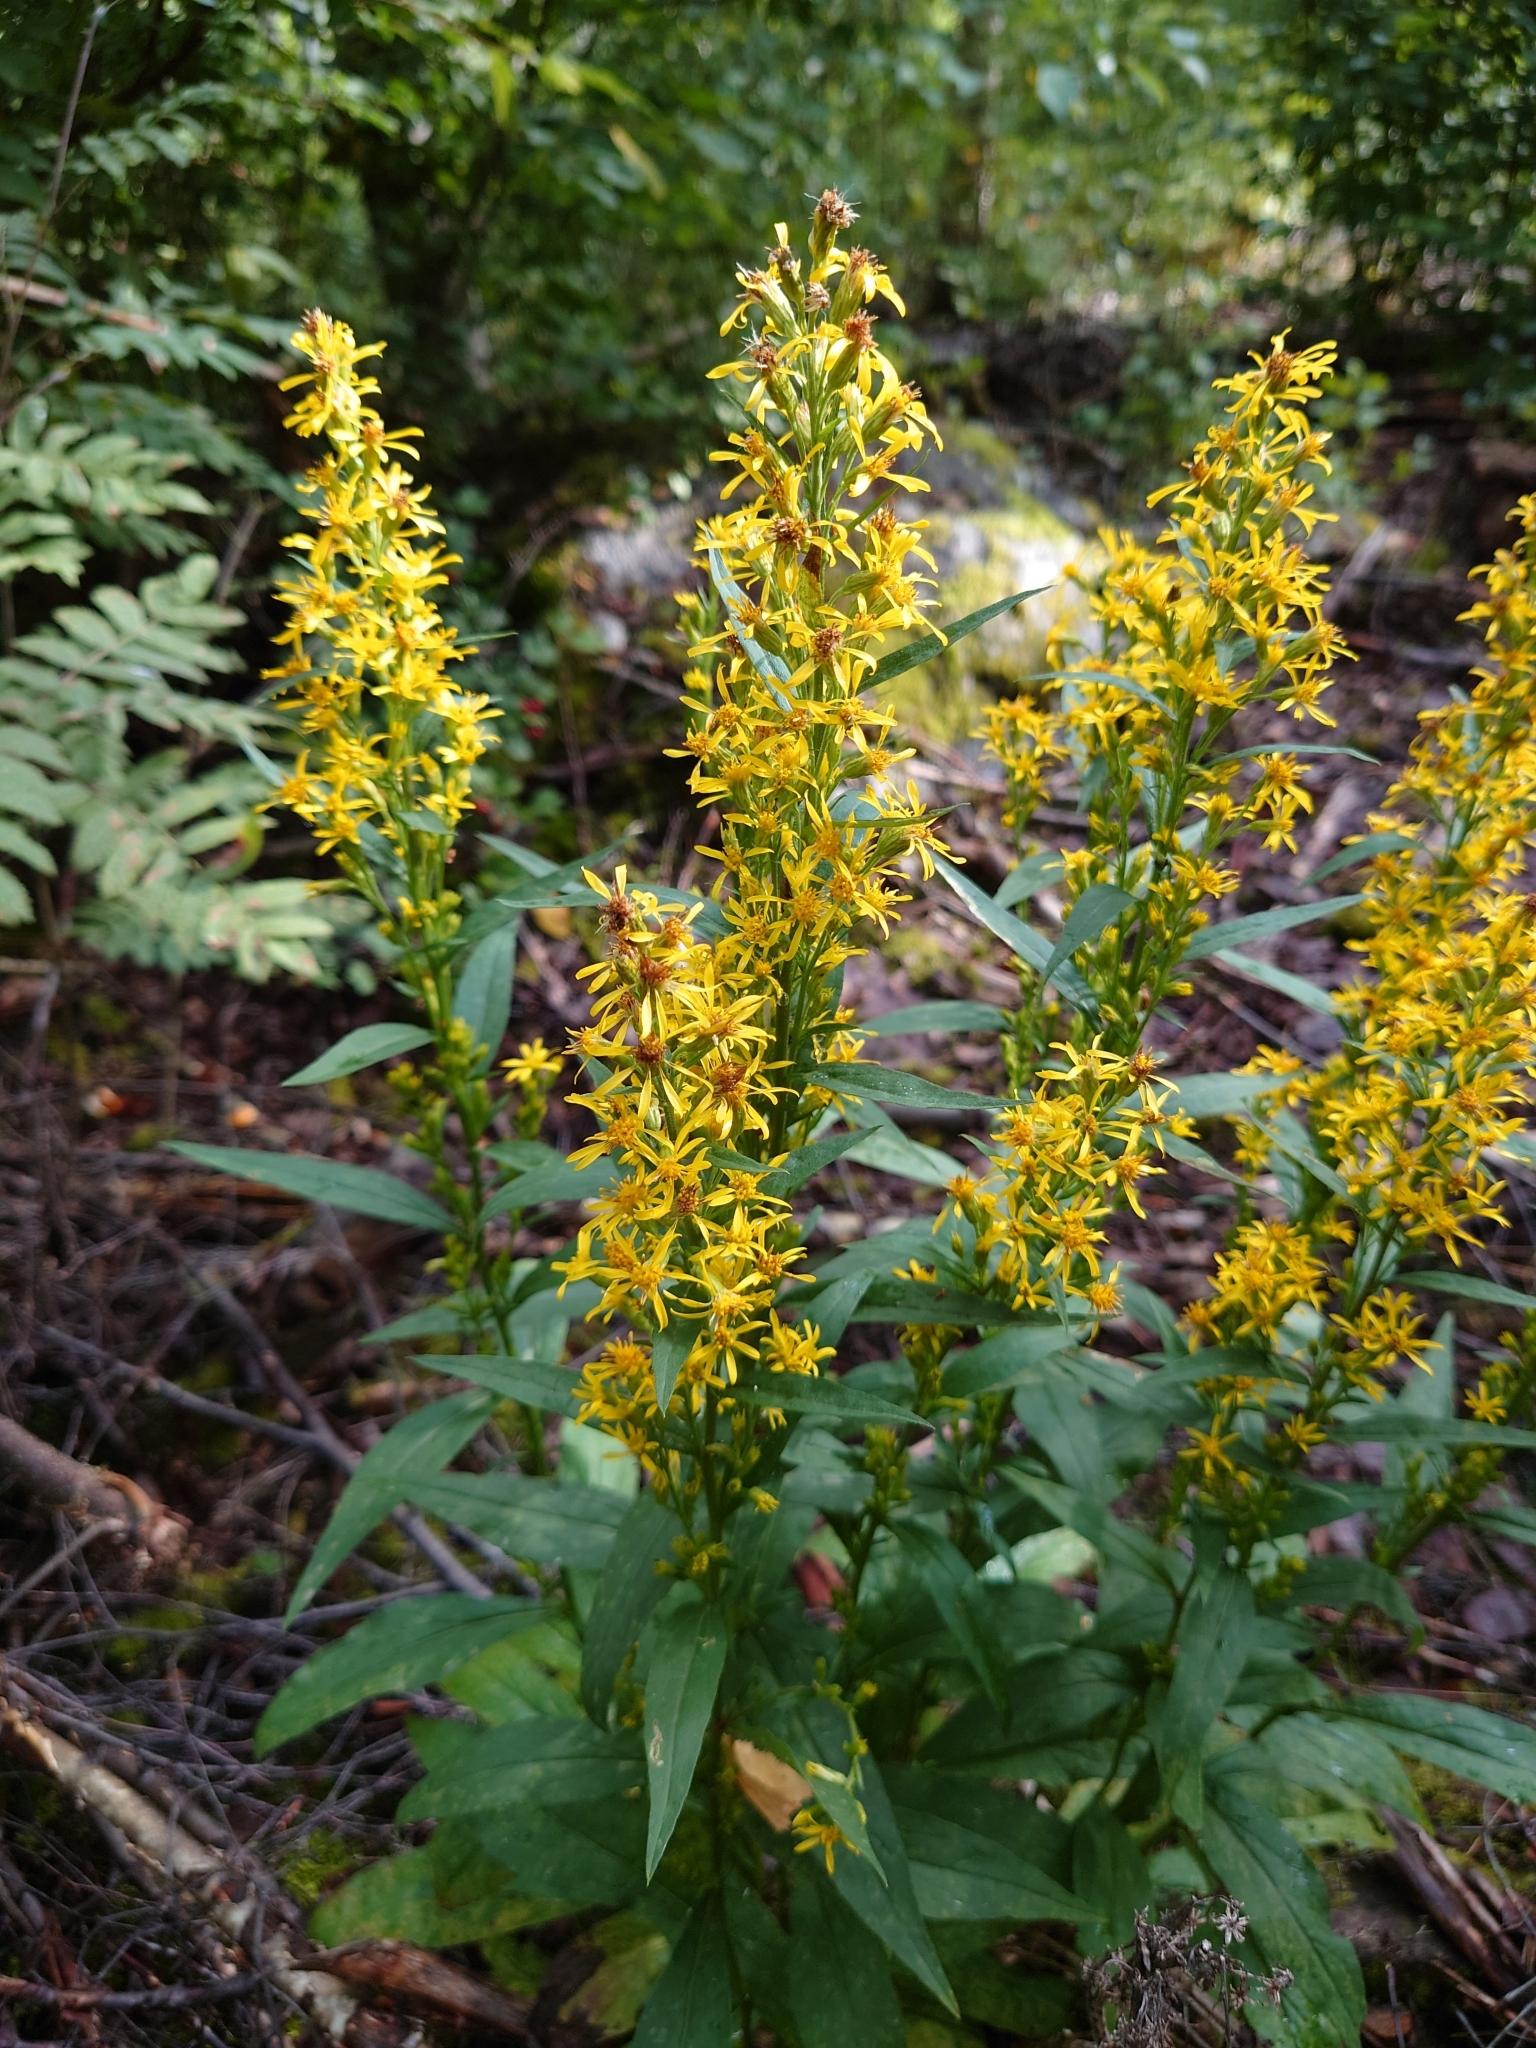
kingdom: Plantae
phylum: Tracheophyta
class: Magnoliopsida
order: Asterales
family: Asteraceae
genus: Solidago
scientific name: Solidago virgaurea
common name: Goldenrod
